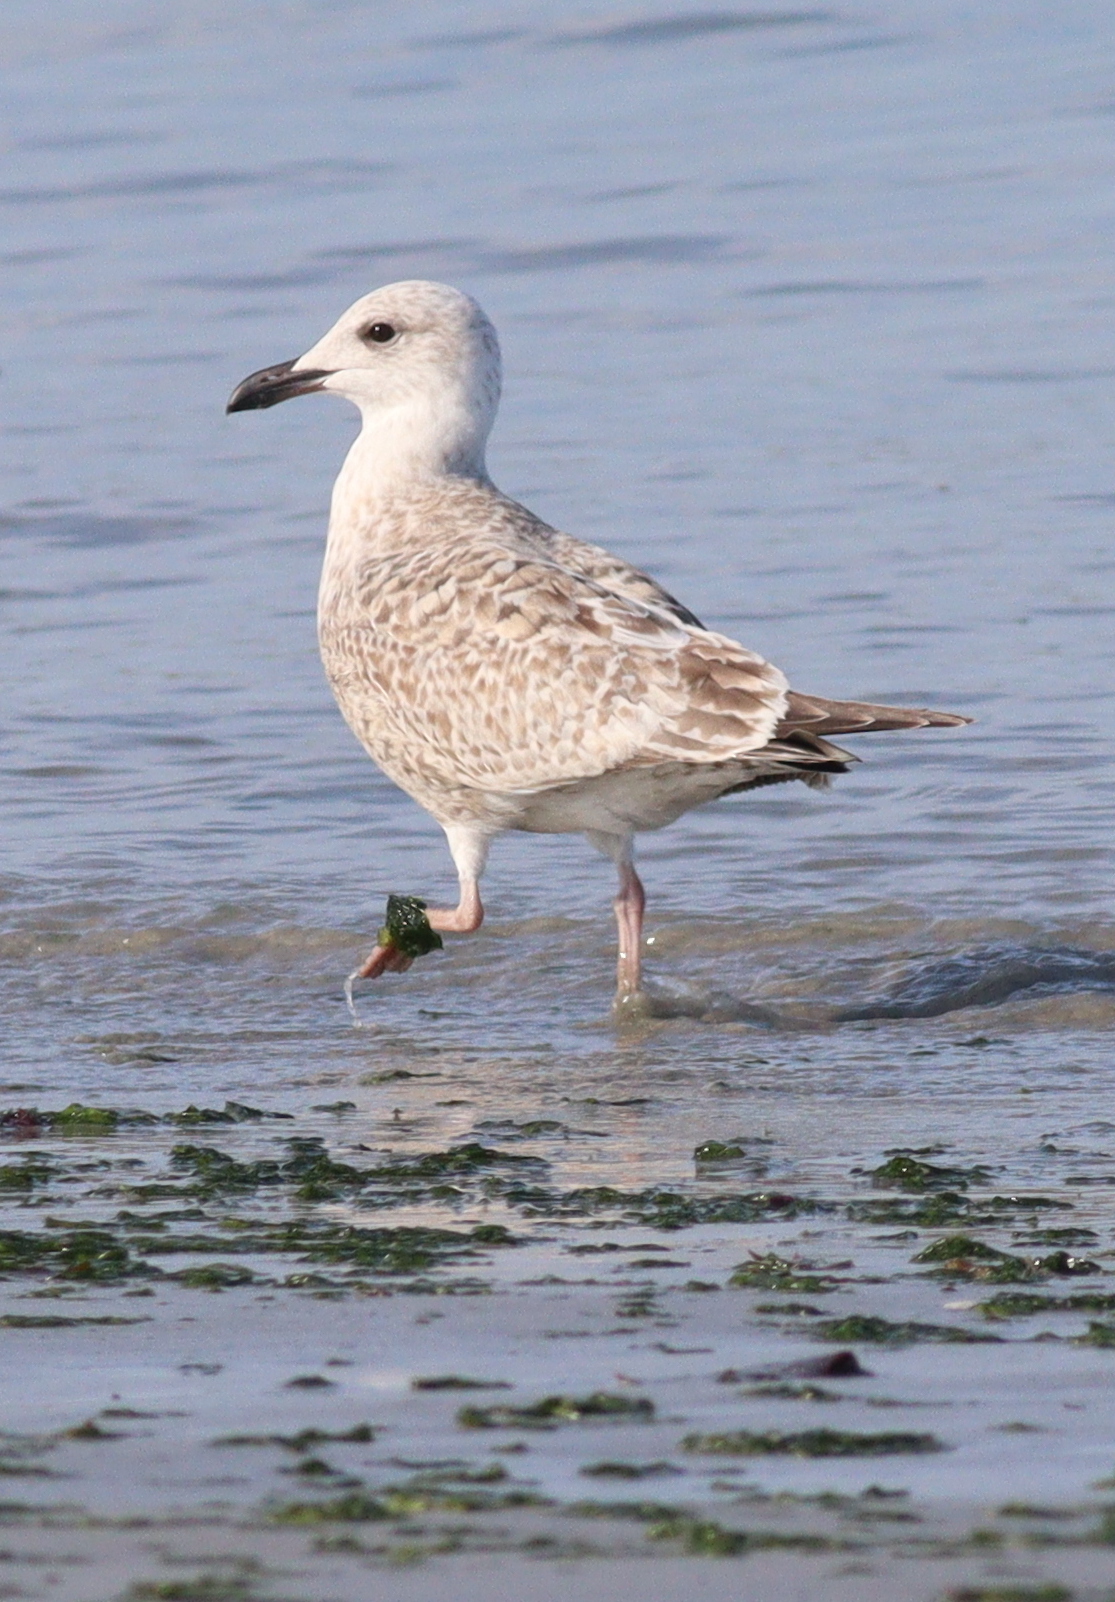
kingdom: Animalia
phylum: Chordata
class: Aves
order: Charadriiformes
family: Laridae
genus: Larus
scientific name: Larus argentatus
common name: Herring gull
